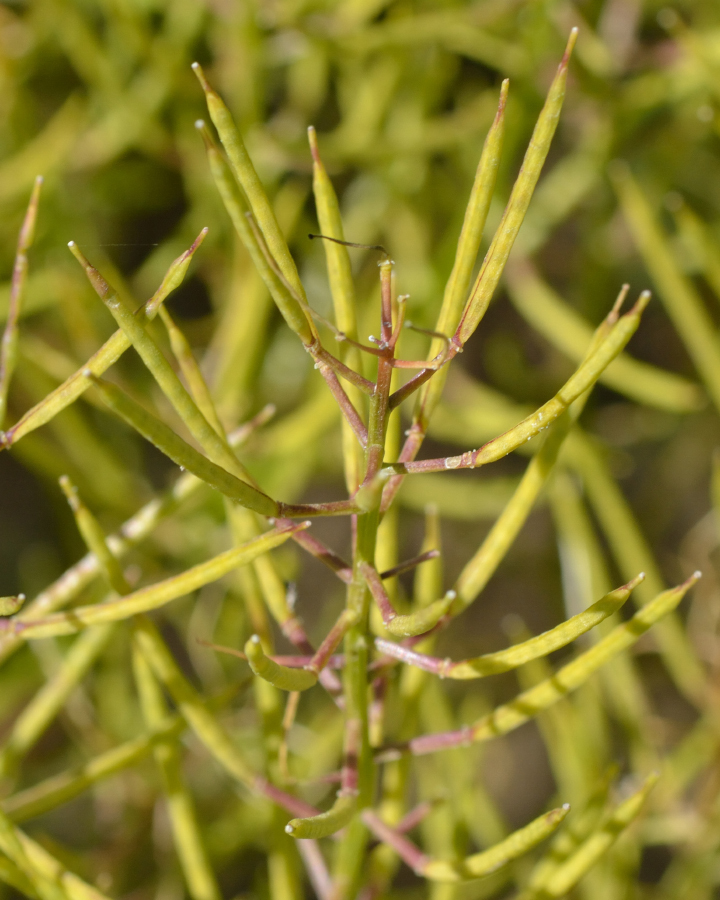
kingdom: Plantae
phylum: Tracheophyta
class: Magnoliopsida
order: Brassicales
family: Brassicaceae
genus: Barbarea
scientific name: Barbarea vulgaris
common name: Cressy-greens
